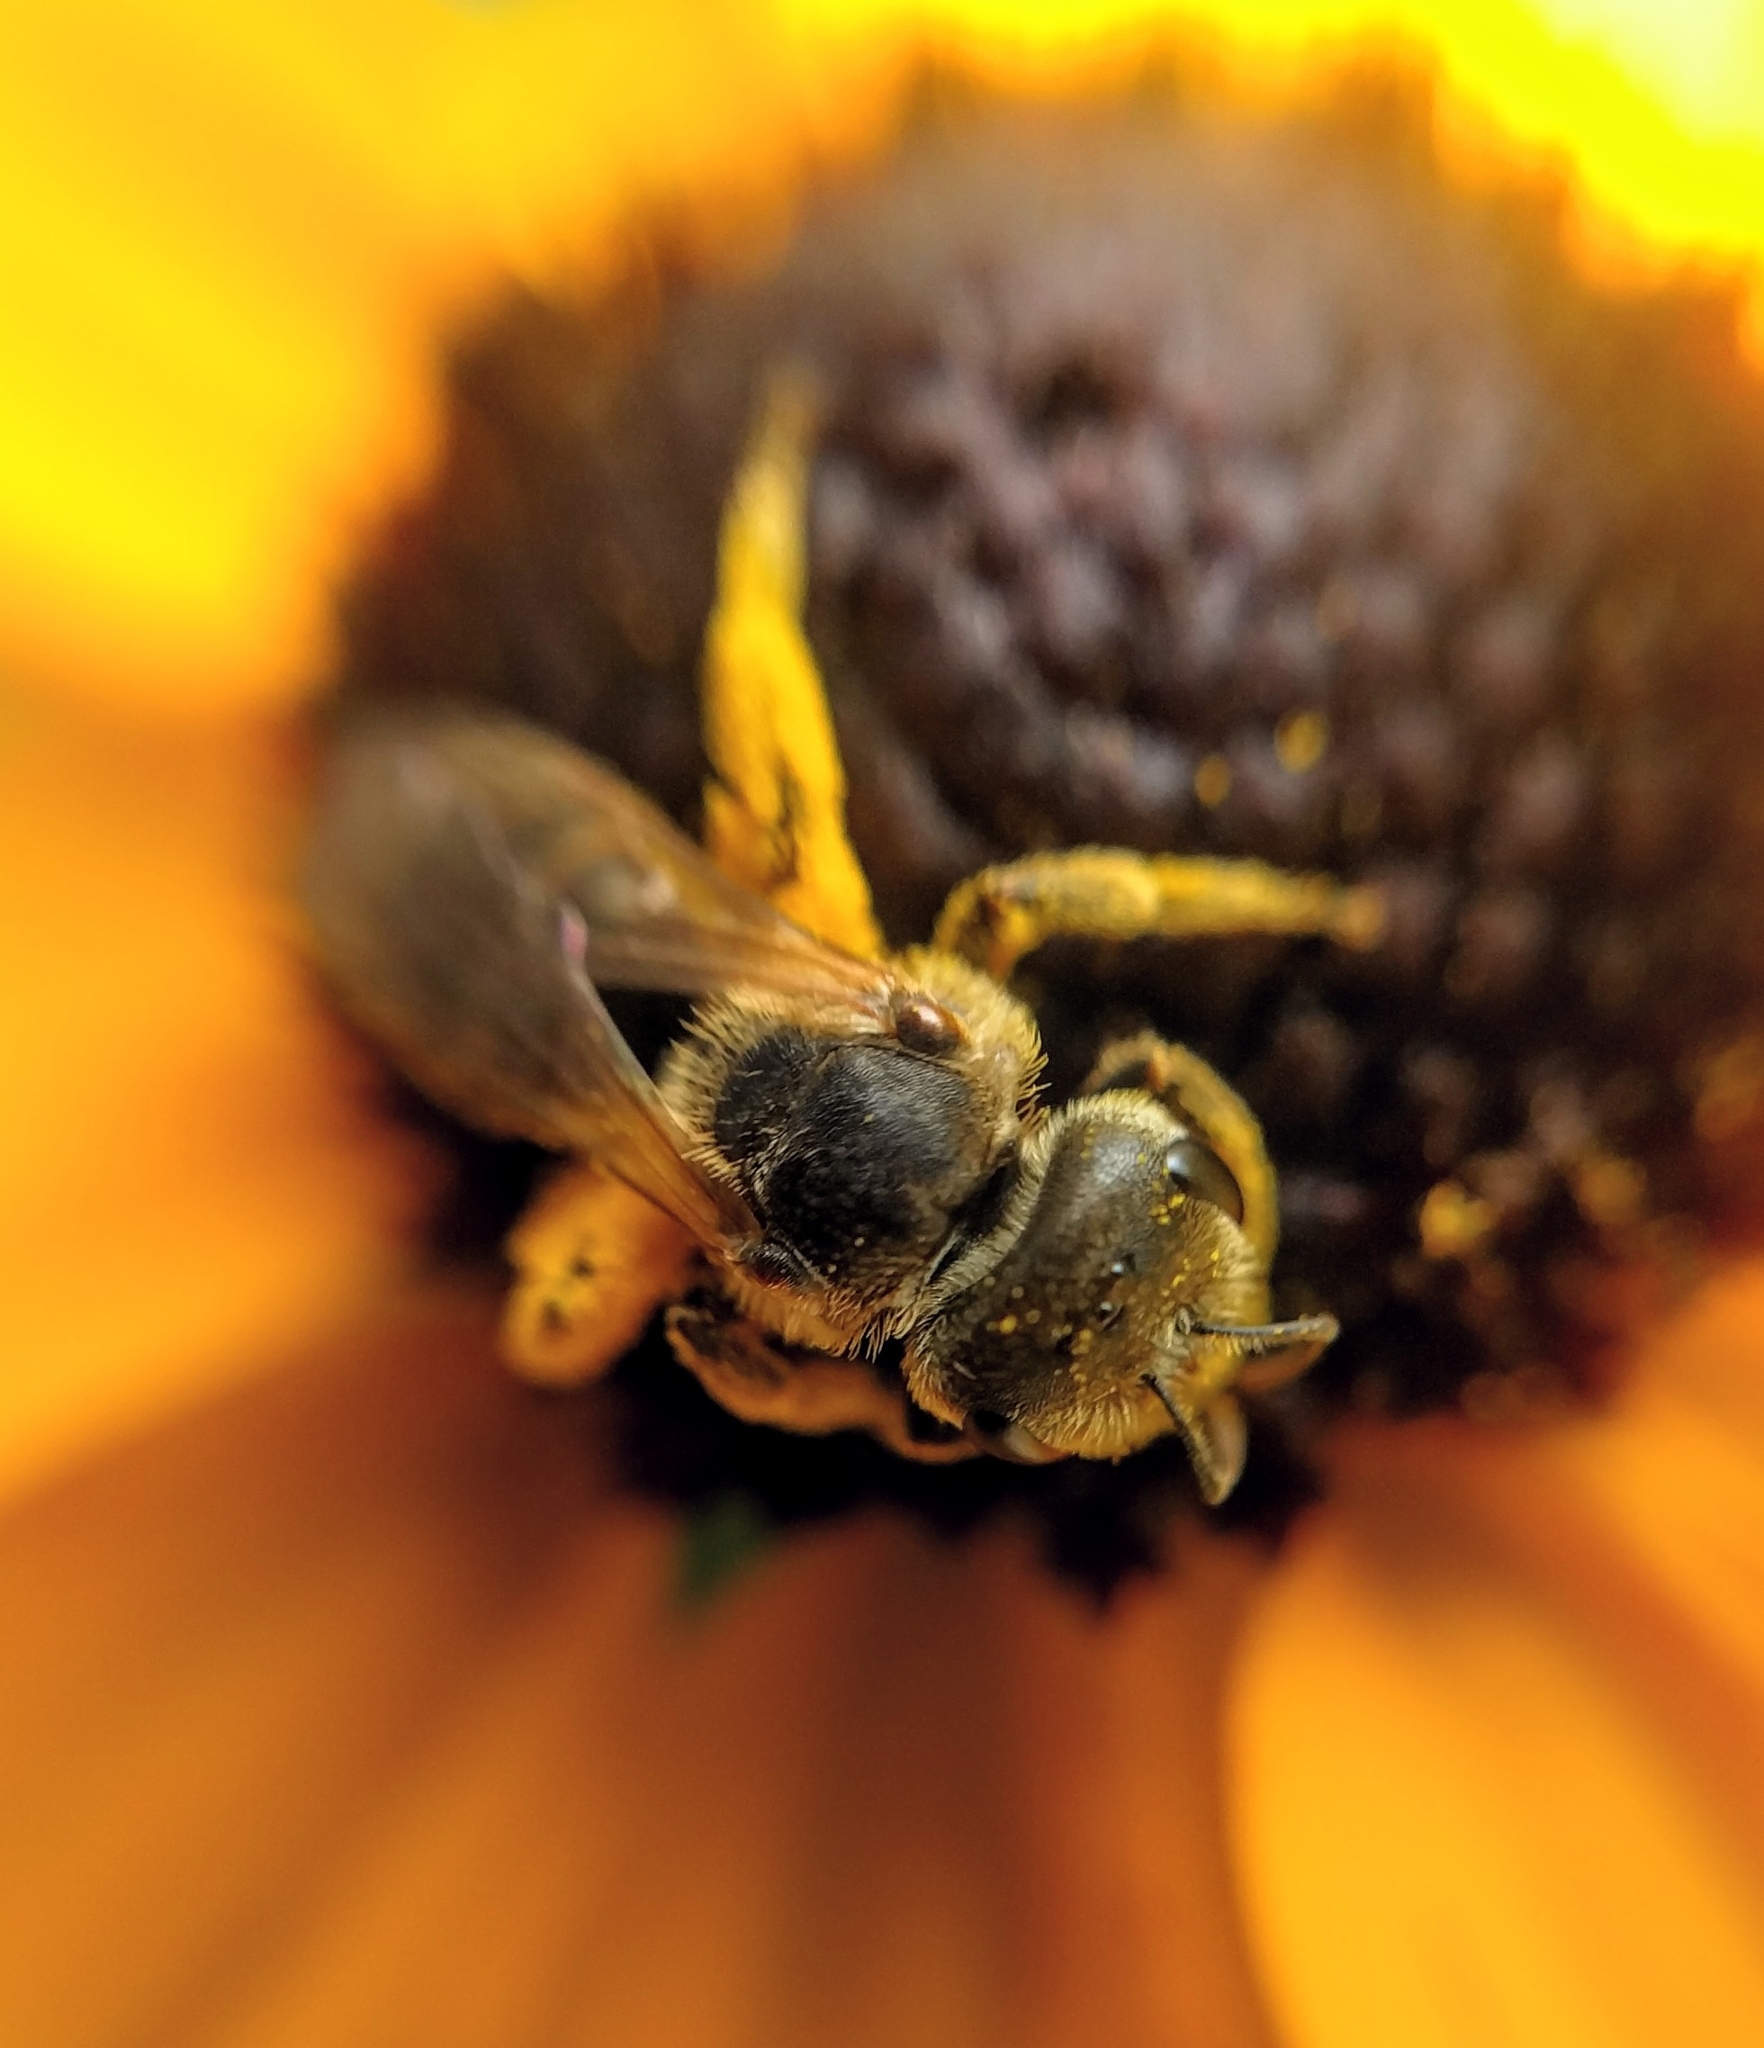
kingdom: Animalia
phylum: Arthropoda
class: Insecta
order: Hymenoptera
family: Halictidae
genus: Halictus
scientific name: Halictus ligatus
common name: Ligated furrow bee
